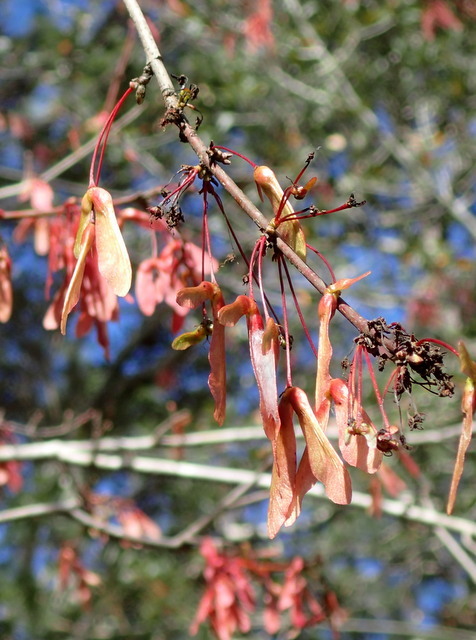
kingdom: Plantae
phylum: Tracheophyta
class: Magnoliopsida
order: Sapindales
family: Sapindaceae
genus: Acer
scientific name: Acer rubrum
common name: Red maple
